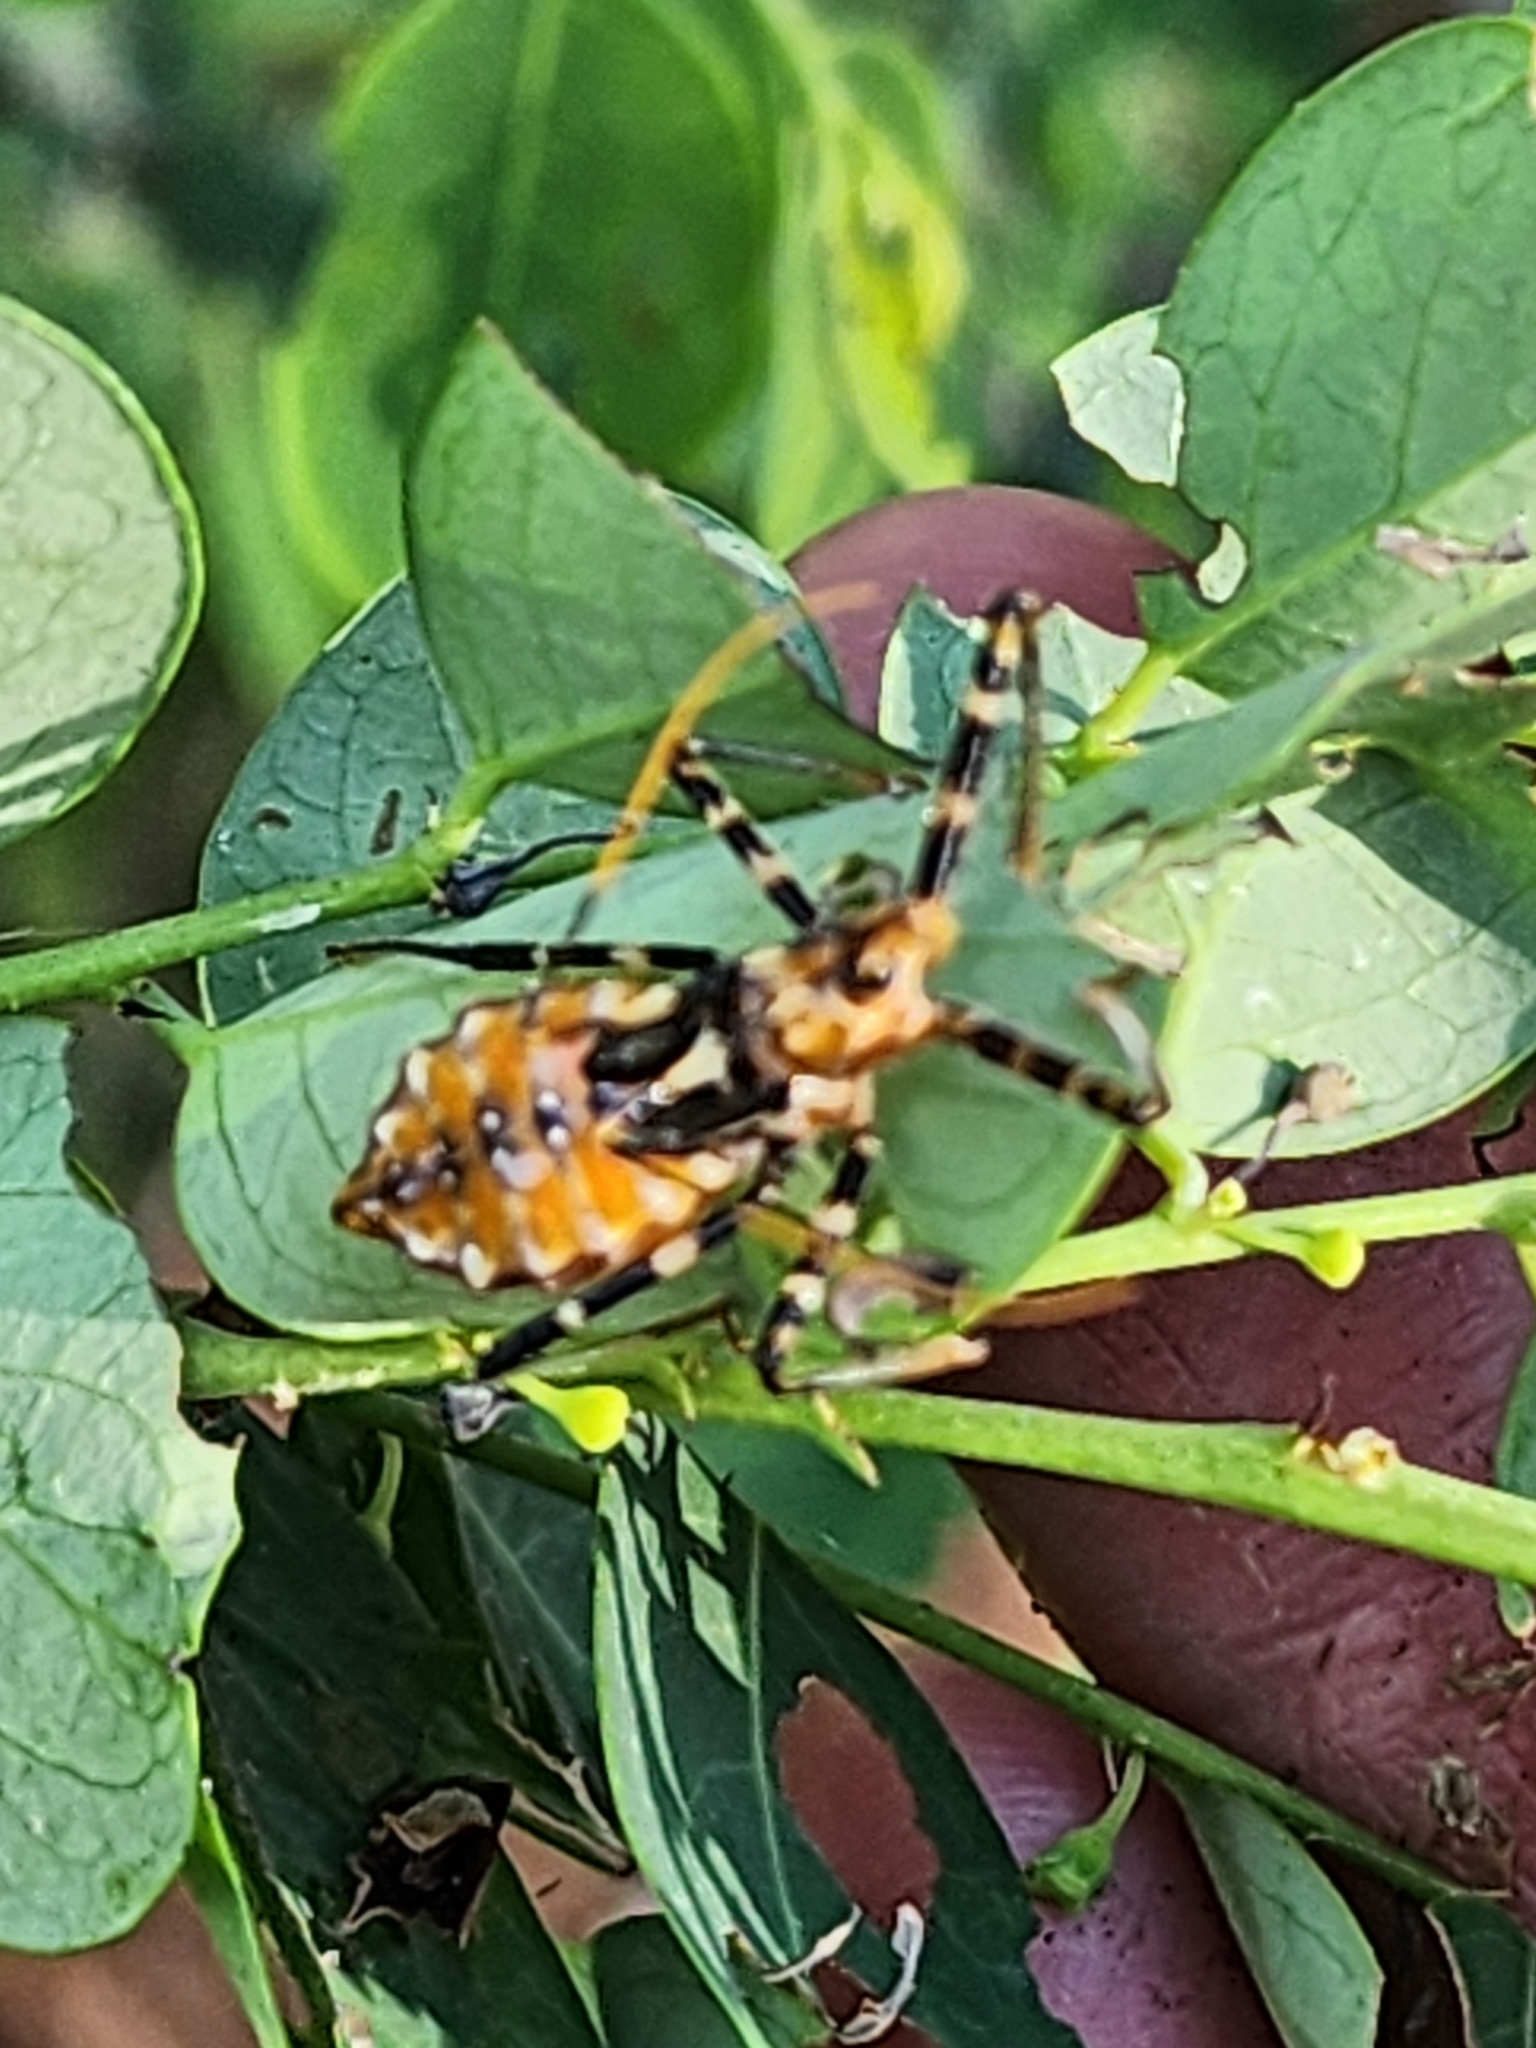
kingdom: Animalia
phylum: Arthropoda
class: Insecta
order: Hemiptera
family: Reduviidae
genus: Pristhesancus
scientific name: Pristhesancus plagipennis
